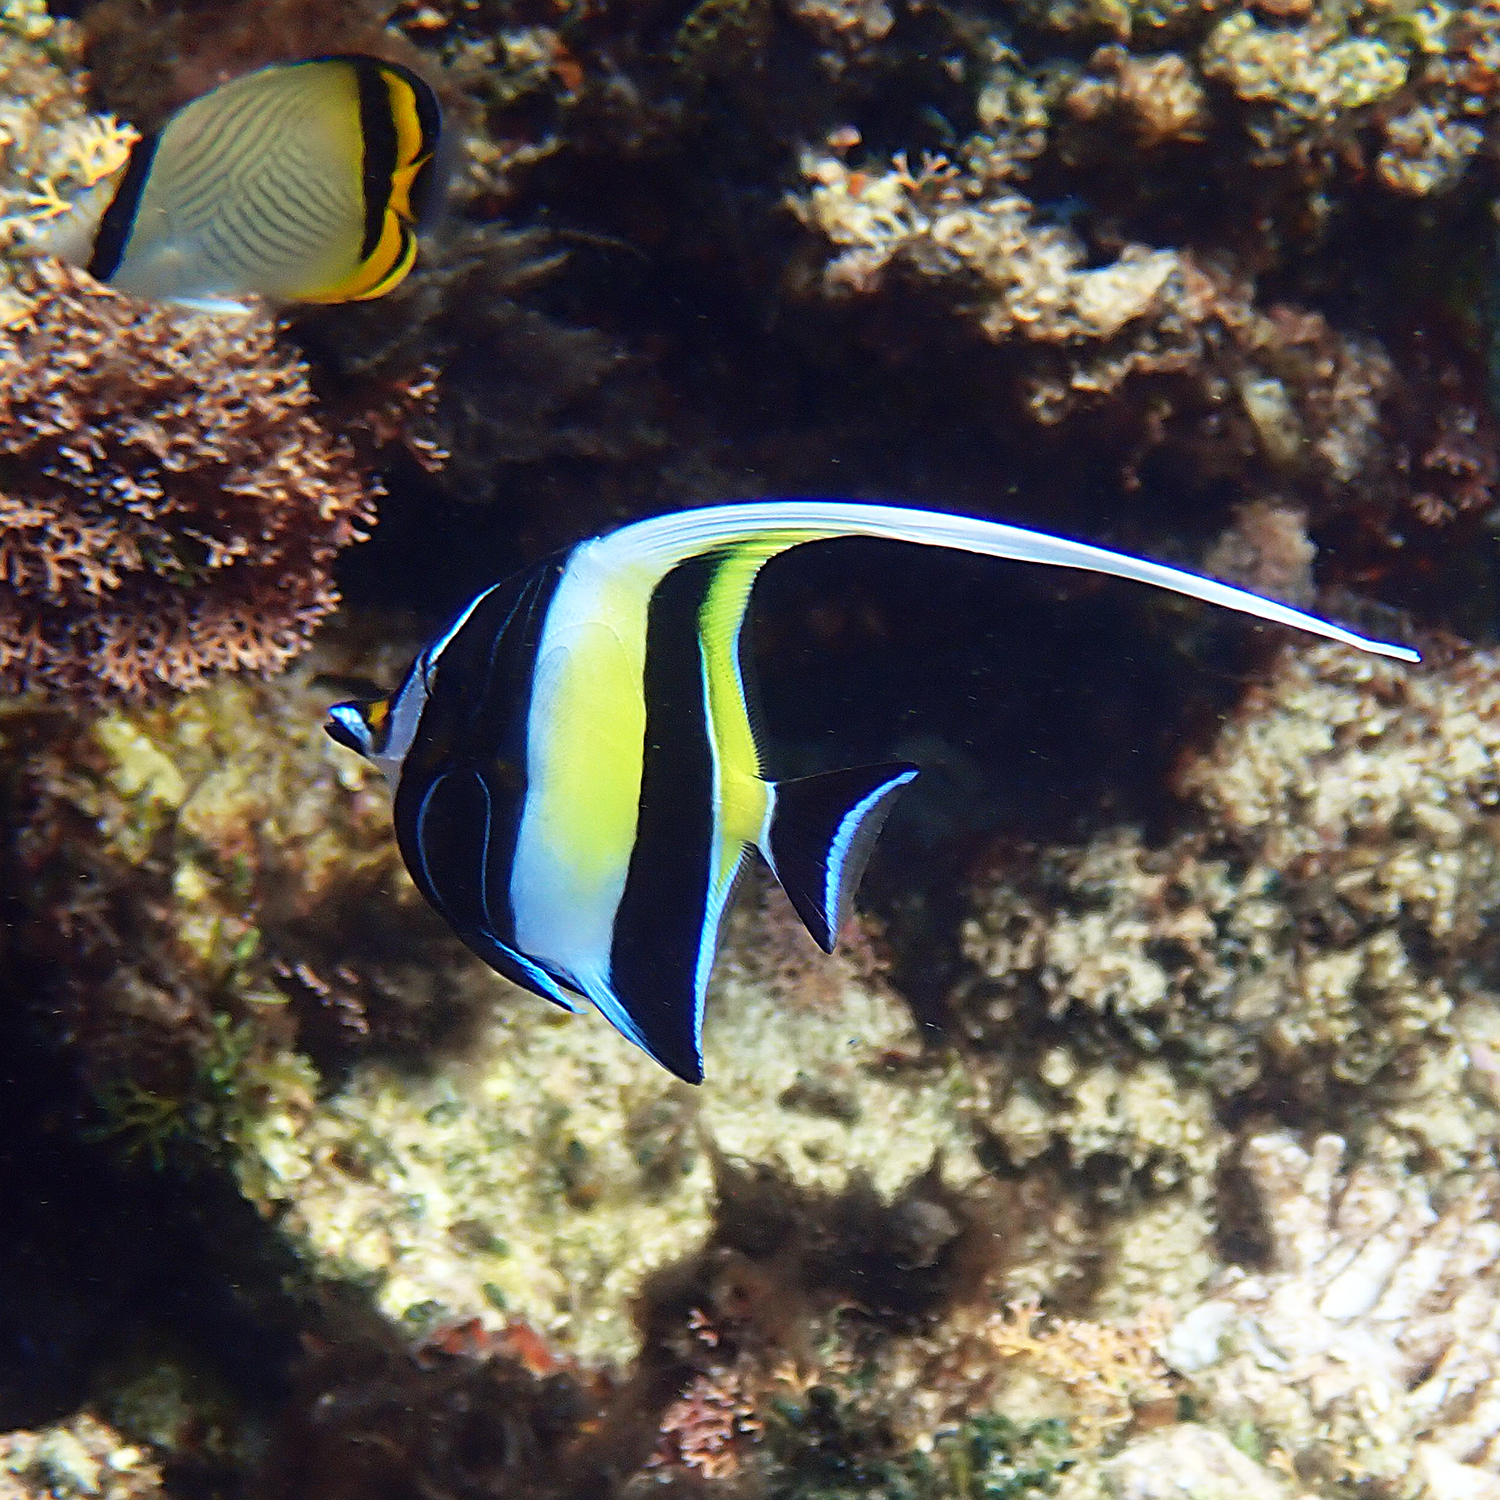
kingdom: Animalia
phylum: Chordata
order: Perciformes
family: Zanclidae
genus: Zanclus
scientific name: Zanclus cornutus
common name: Moorish idol
